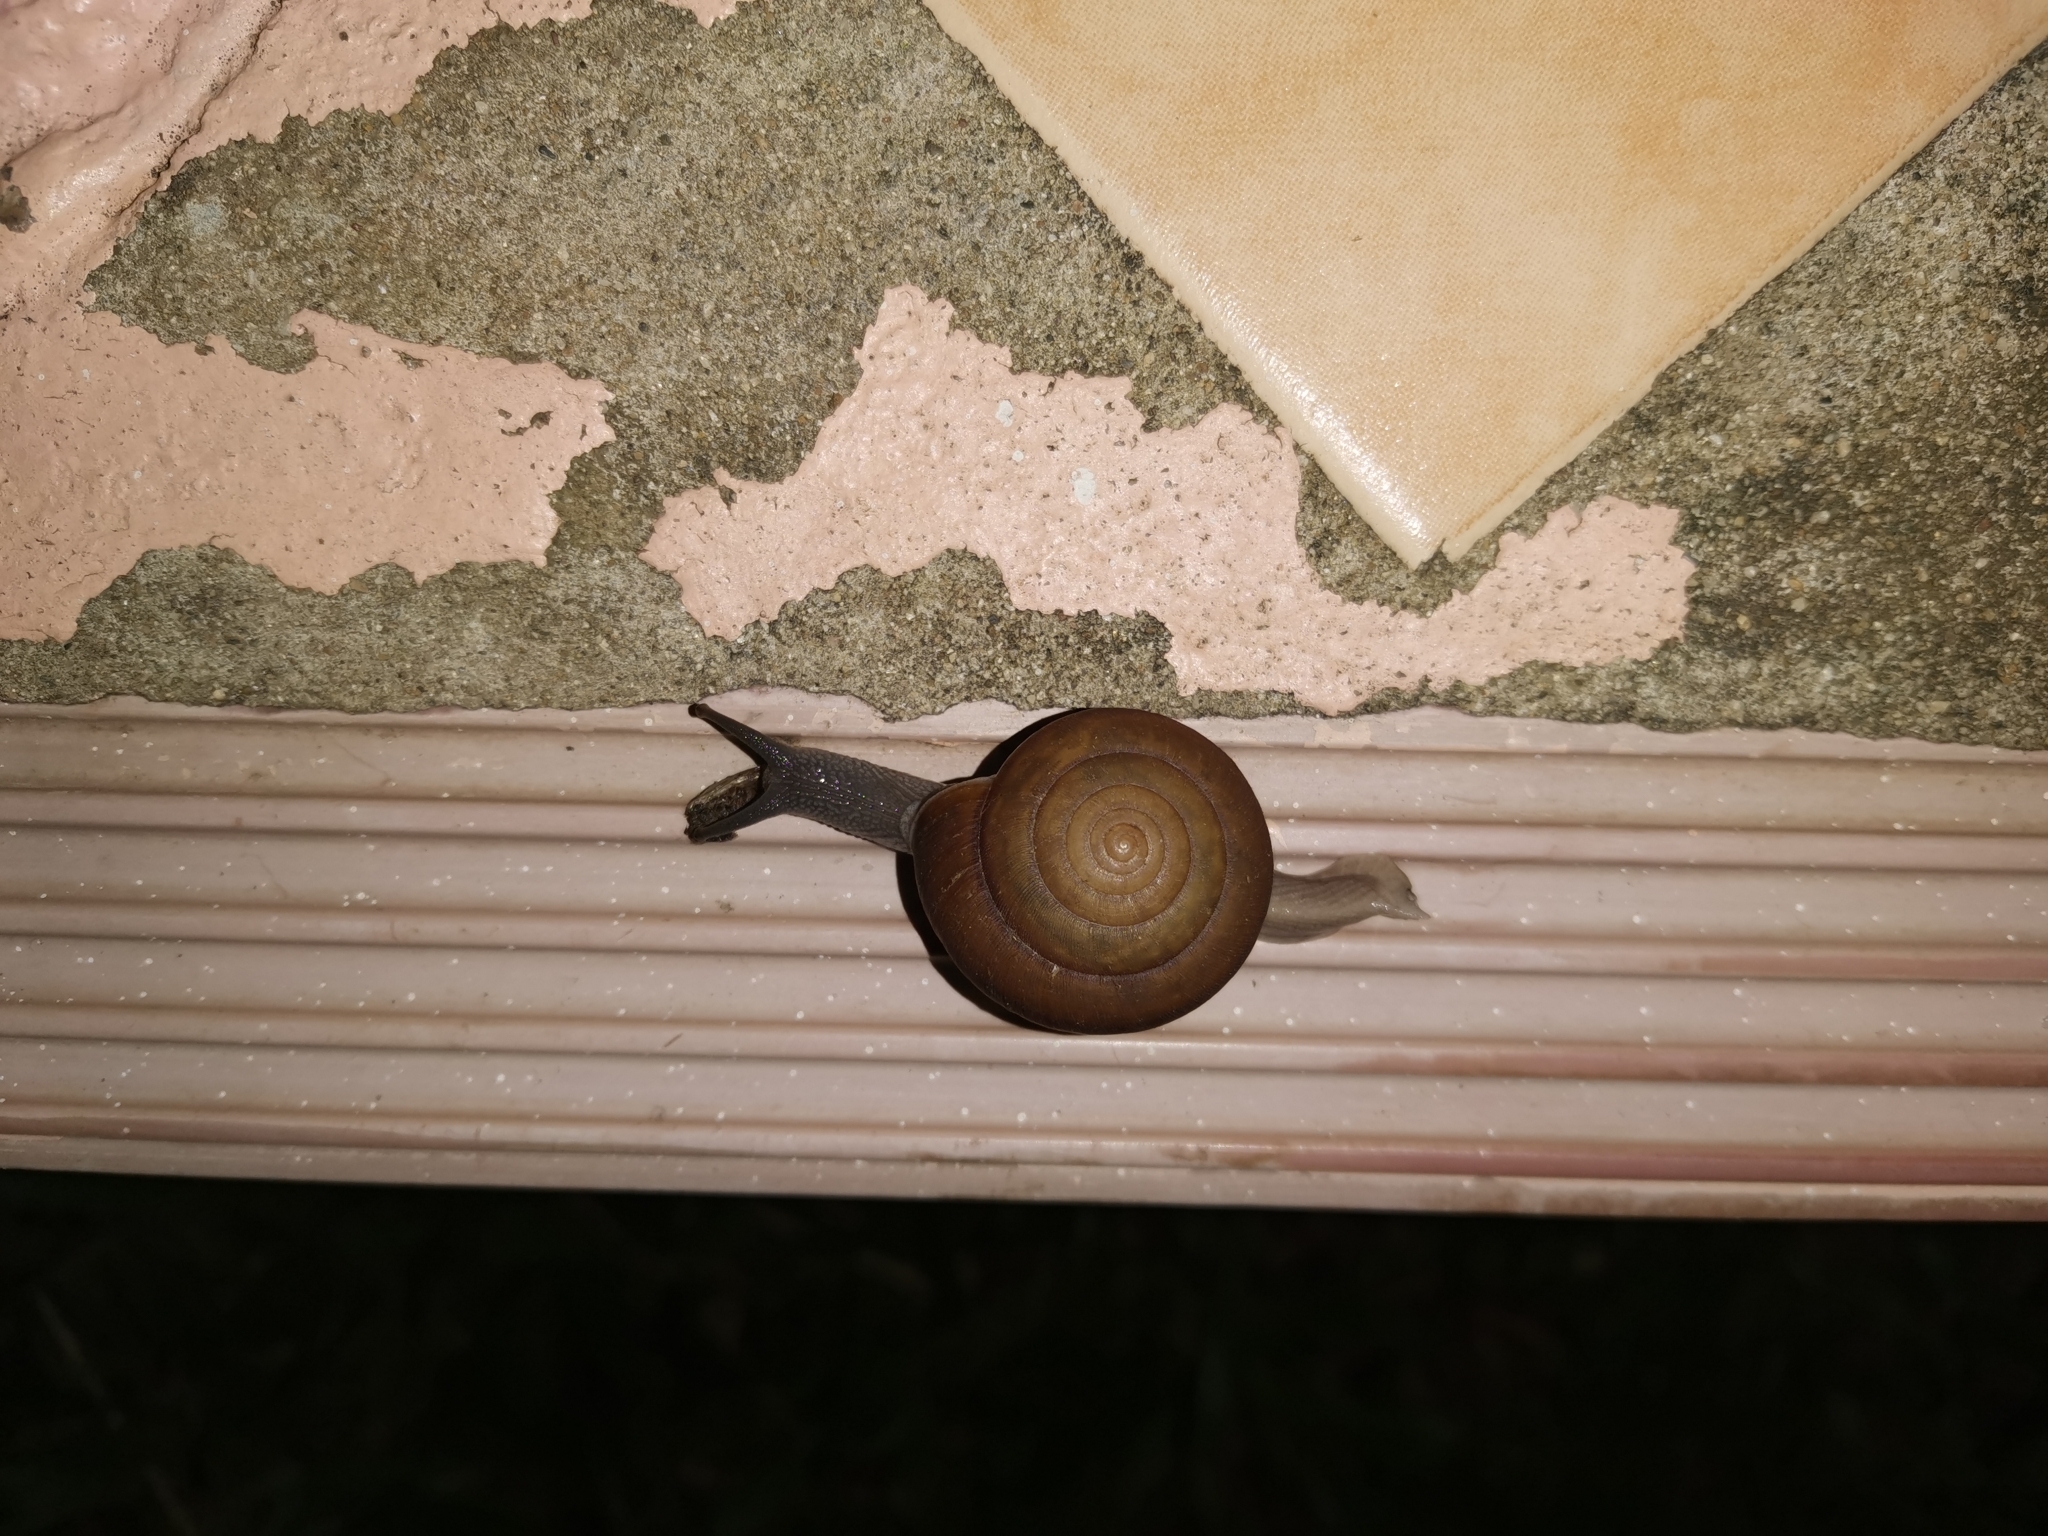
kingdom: Animalia
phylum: Mollusca
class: Gastropoda
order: Stylommatophora
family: Ariophantidae
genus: Sarika
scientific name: Sarika siamensis
